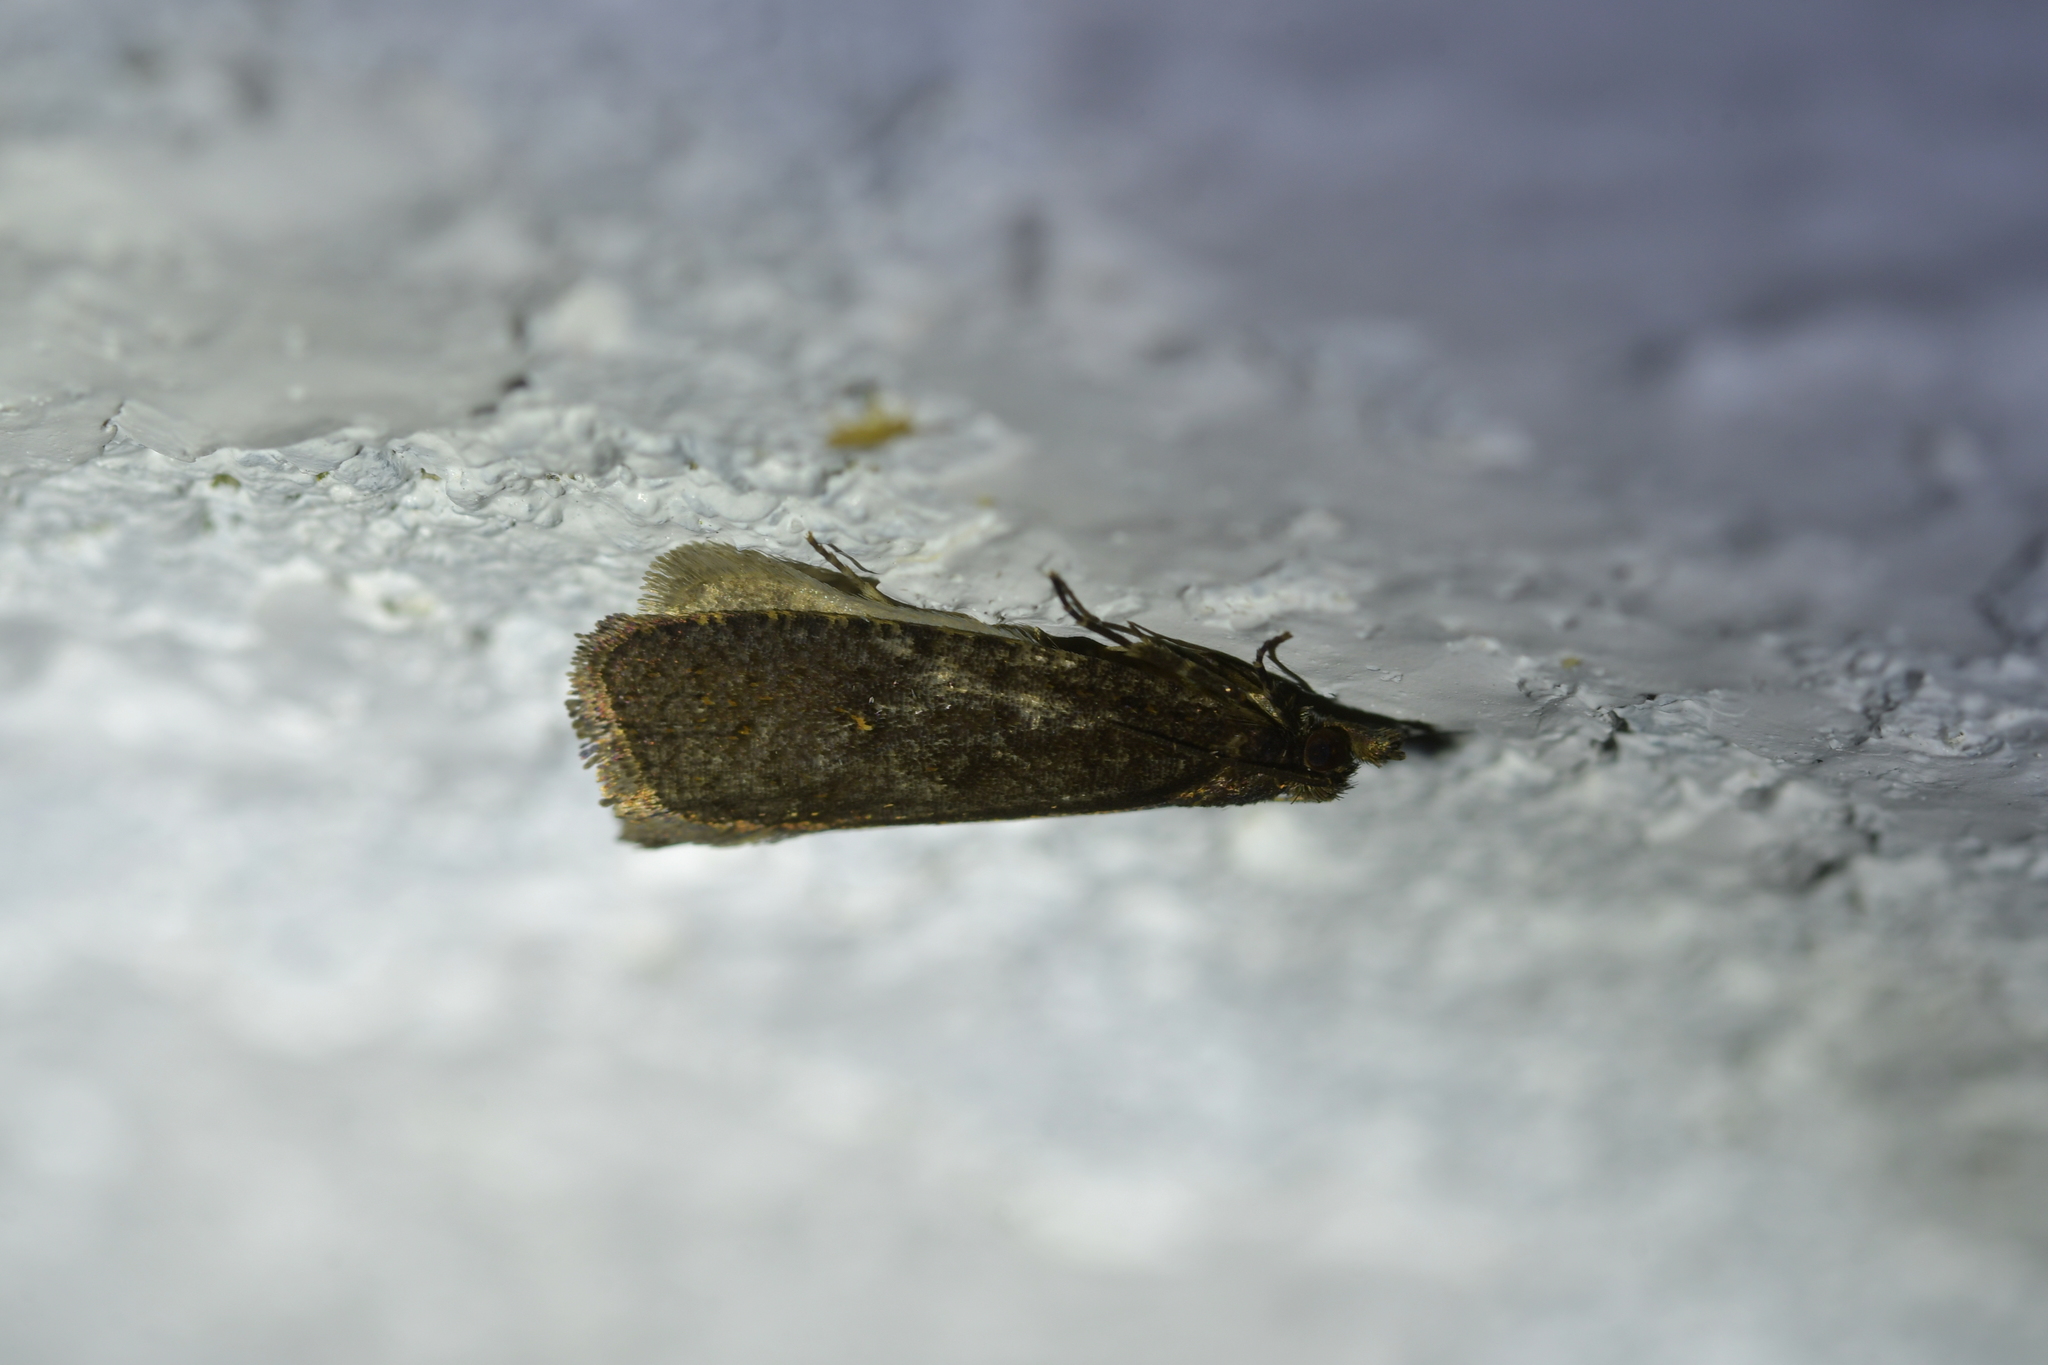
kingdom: Animalia
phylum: Arthropoda
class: Insecta
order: Lepidoptera
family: Tortricidae
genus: Cryptaspasma
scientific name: Cryptaspasma querula
